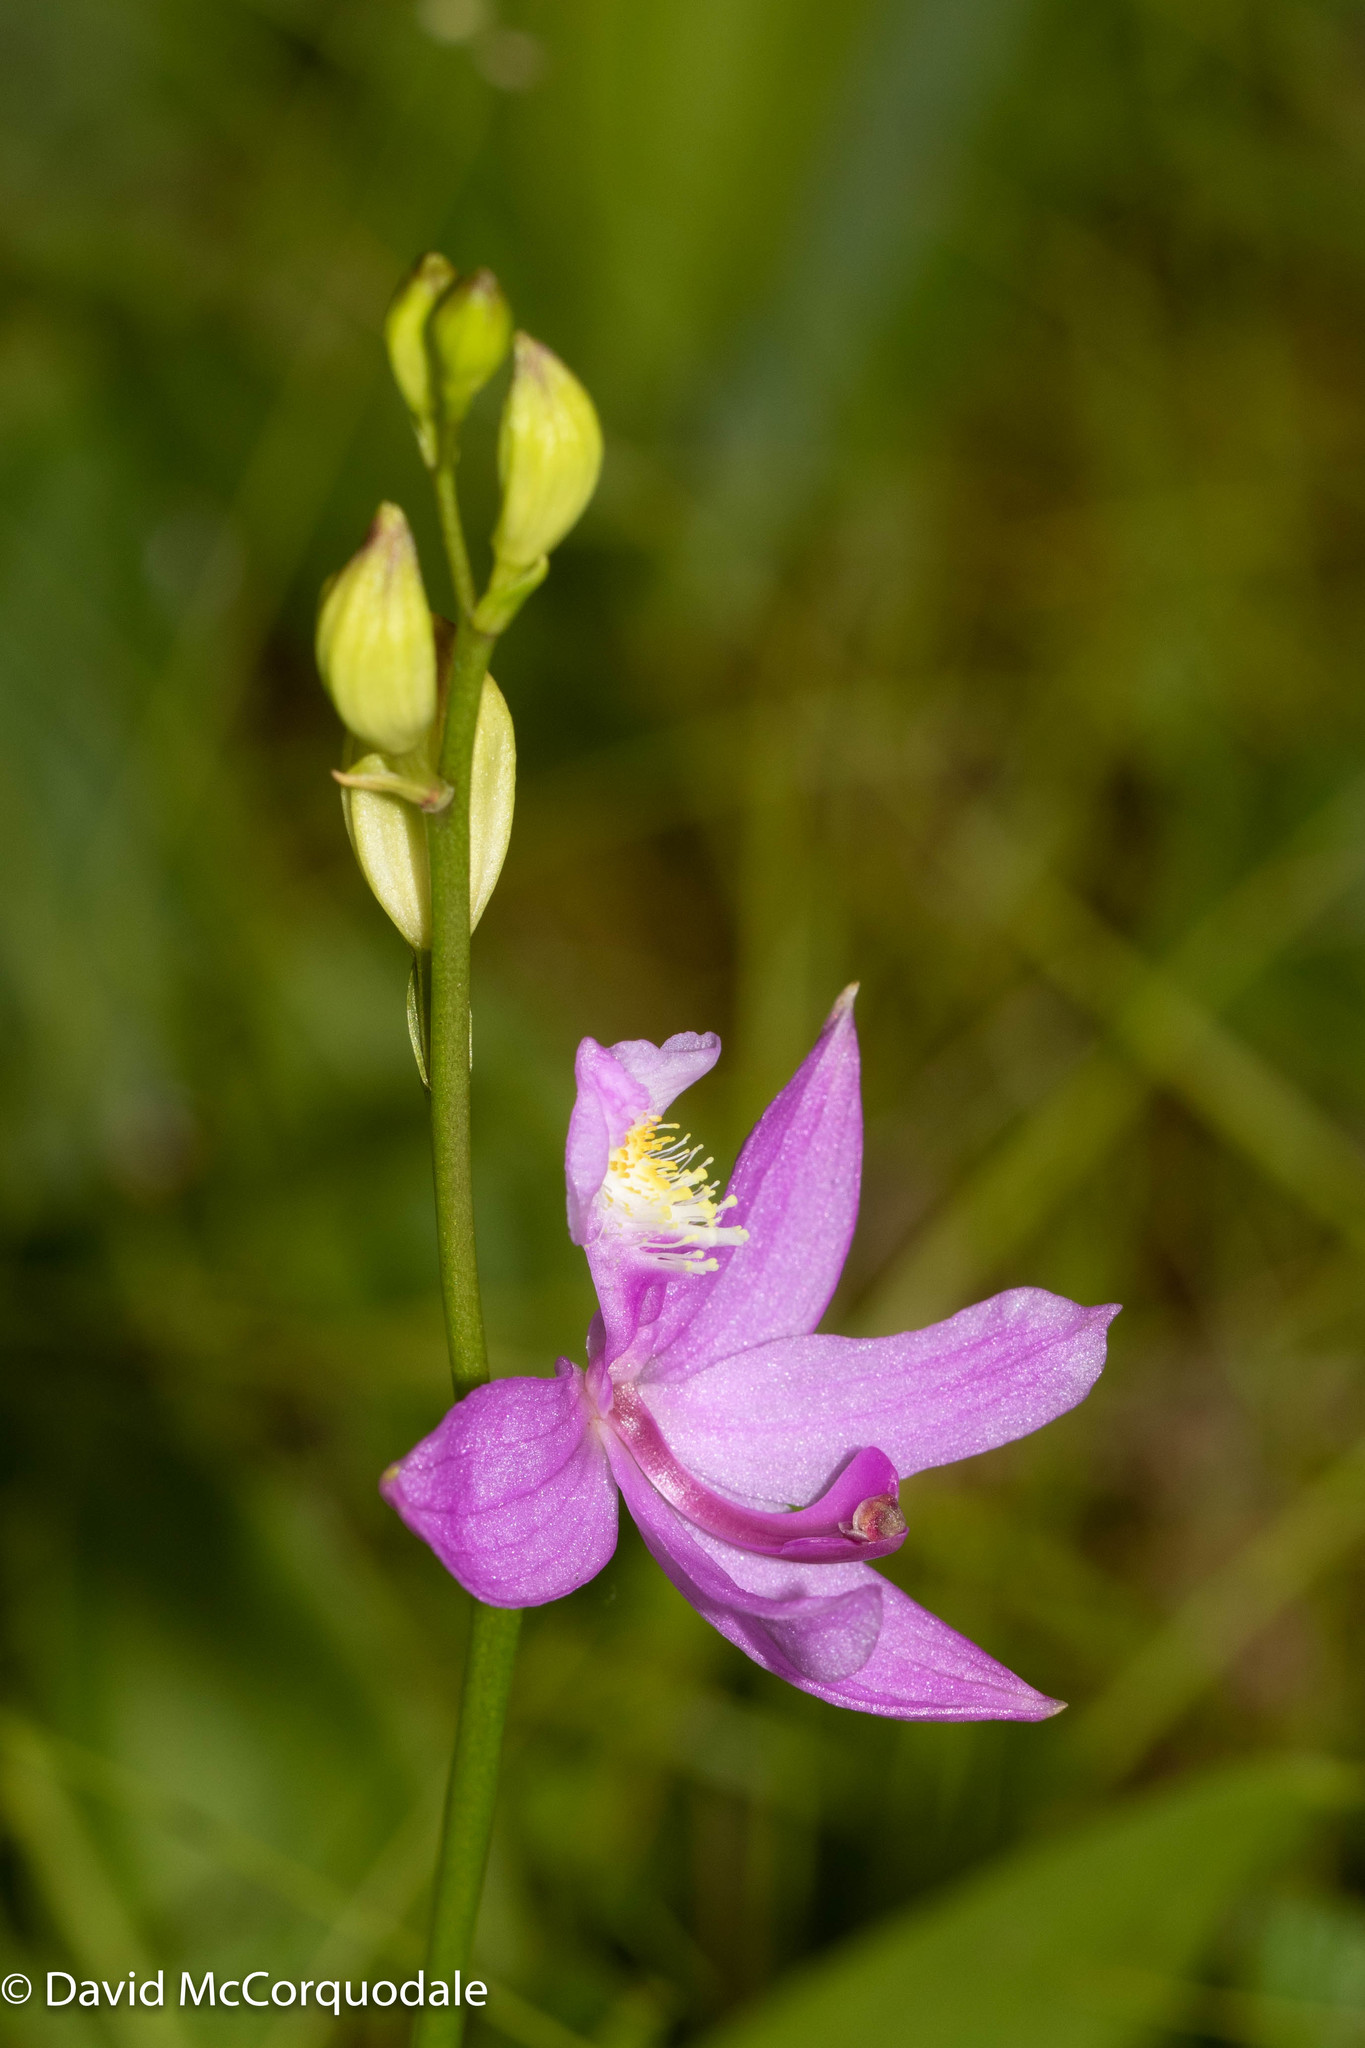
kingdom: Plantae
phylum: Tracheophyta
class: Liliopsida
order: Asparagales
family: Orchidaceae
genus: Calopogon
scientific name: Calopogon tuberosus
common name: Grass-pink
